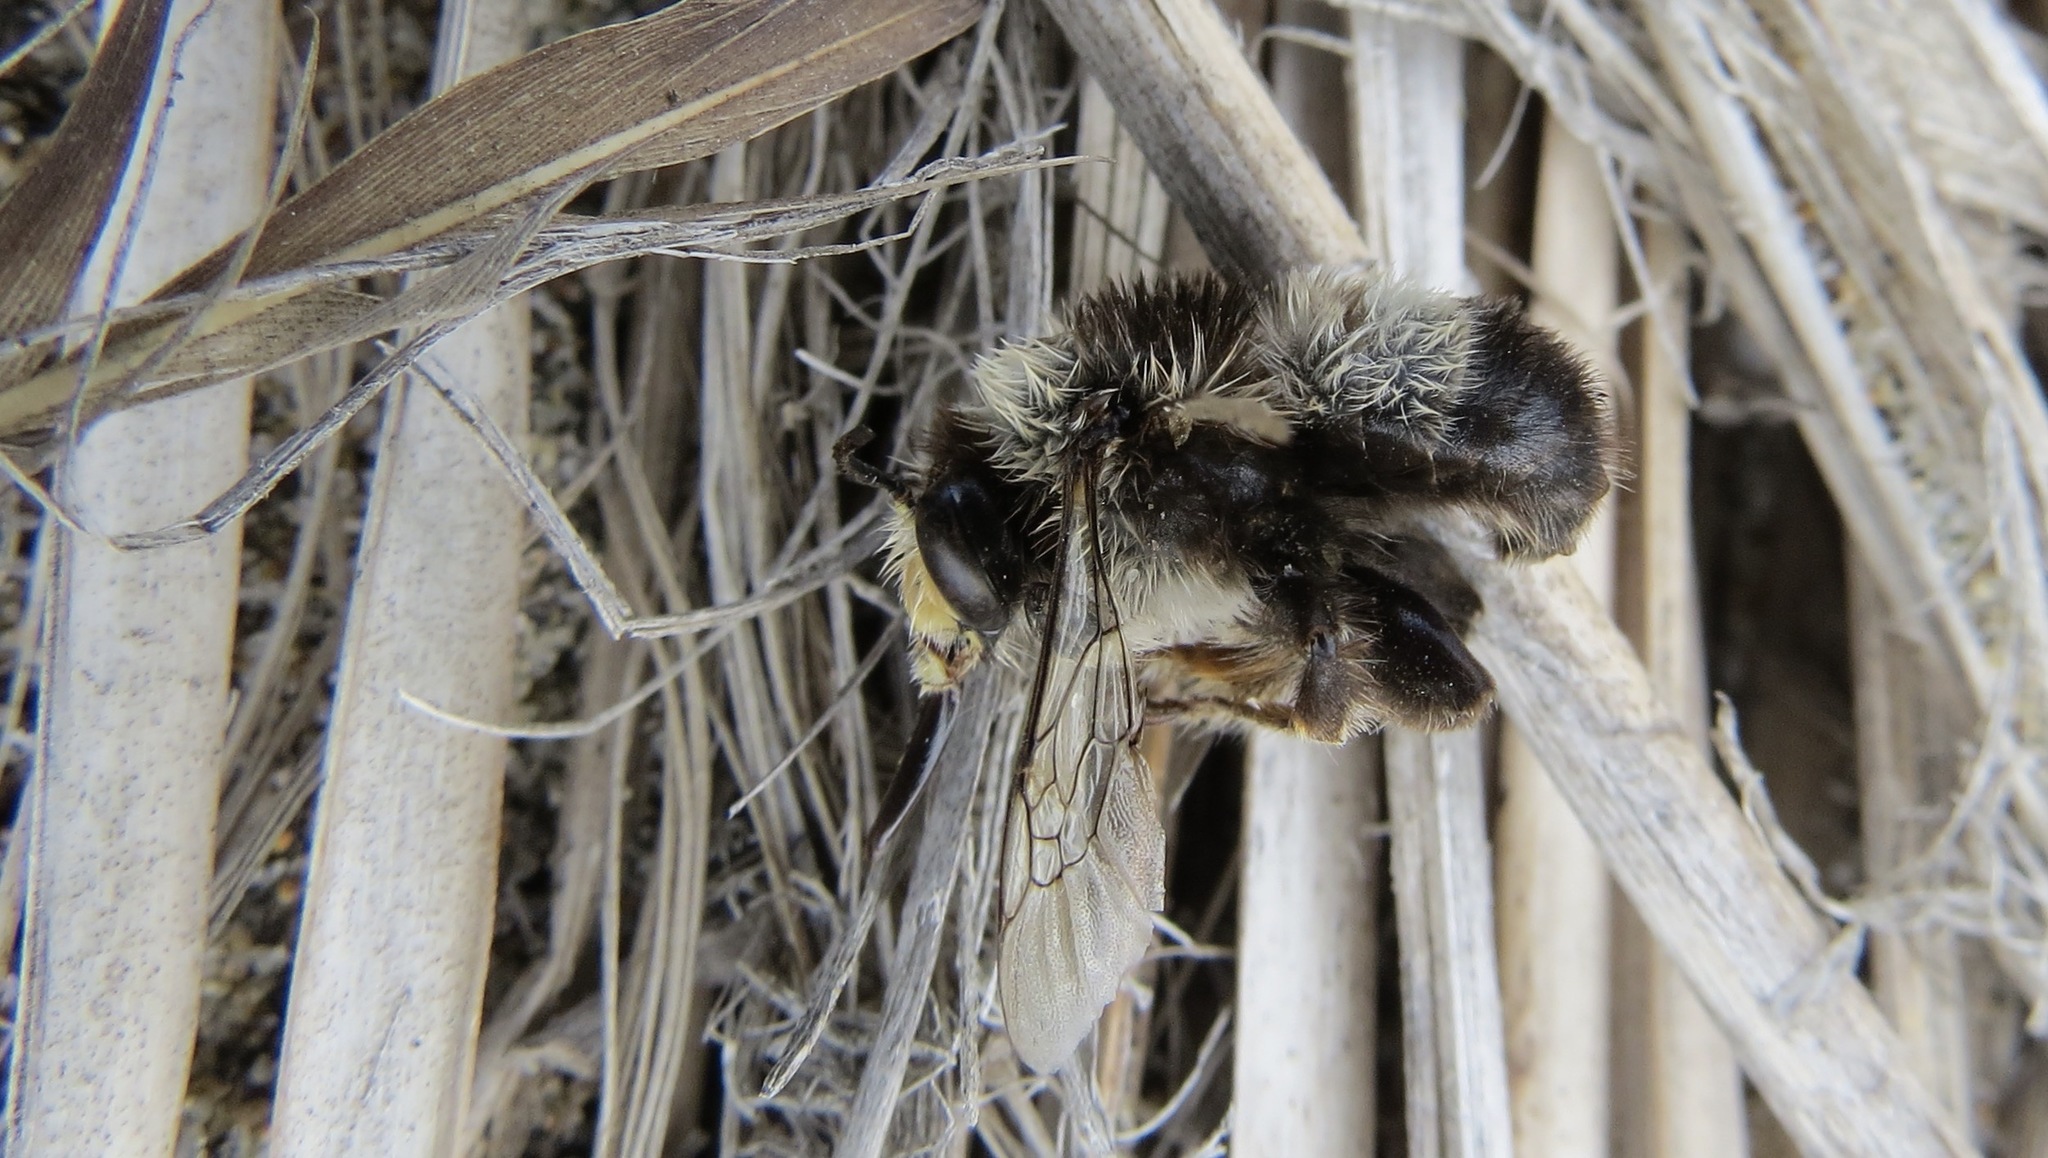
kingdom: Animalia
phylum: Arthropoda
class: Insecta
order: Hymenoptera
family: Apidae
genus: Anthophora
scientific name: Anthophora bomboides
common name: Bumble-bee-mimic digger bee
